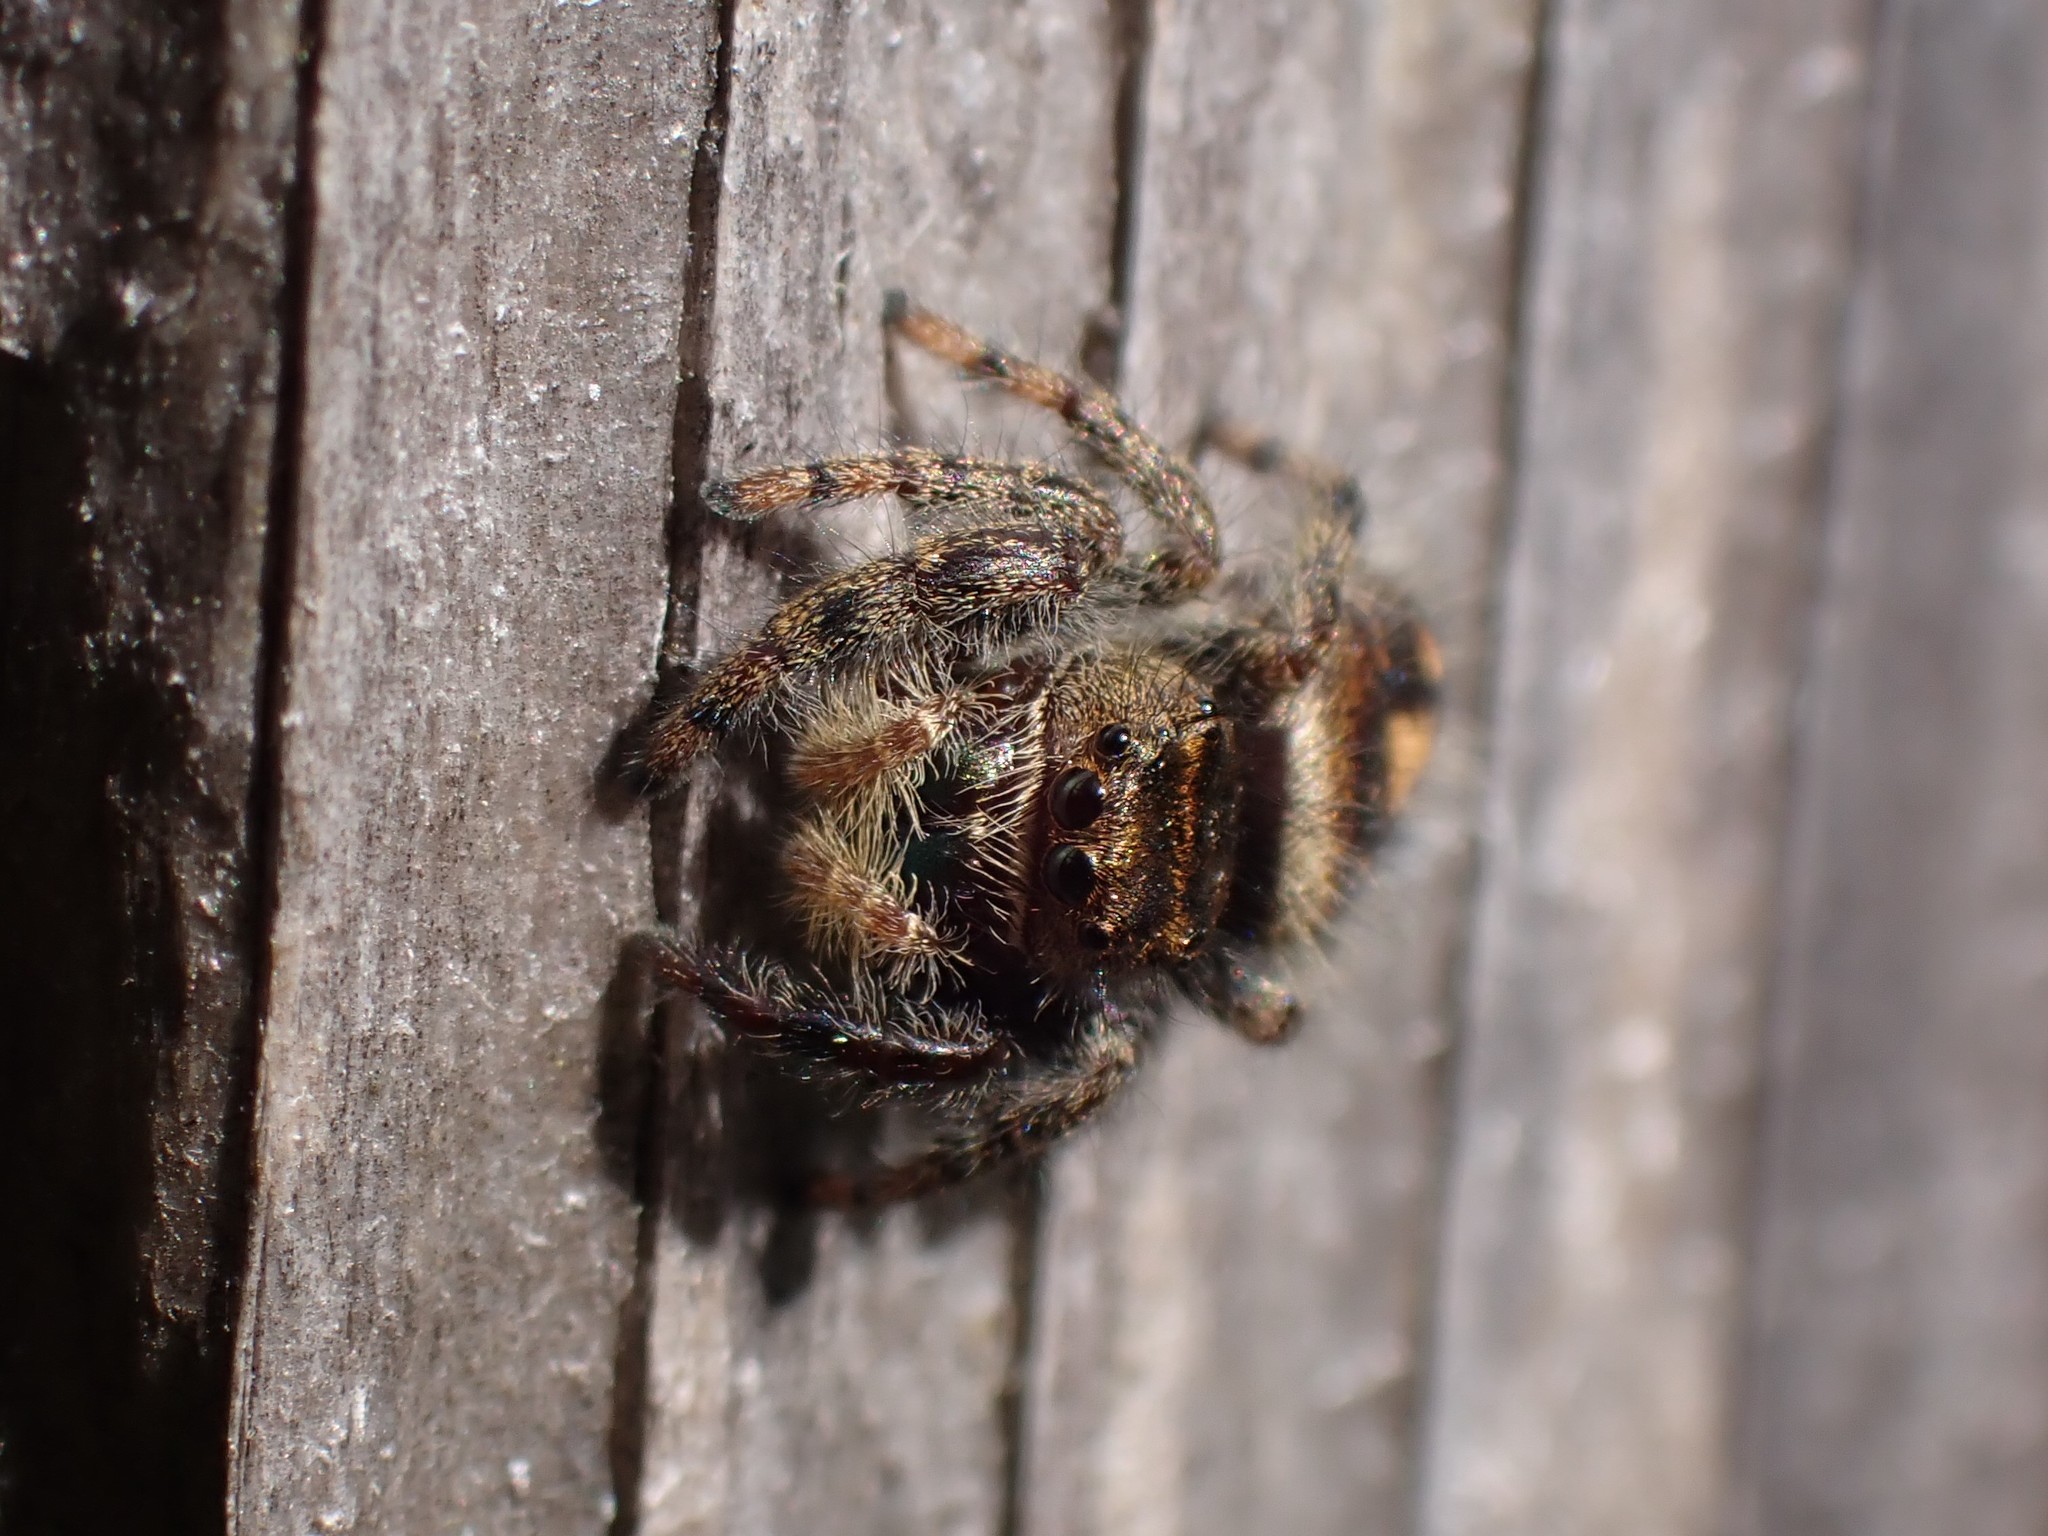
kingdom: Animalia
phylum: Arthropoda
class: Arachnida
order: Araneae
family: Salticidae
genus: Phidippus
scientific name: Phidippus audax
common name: Bold jumper
